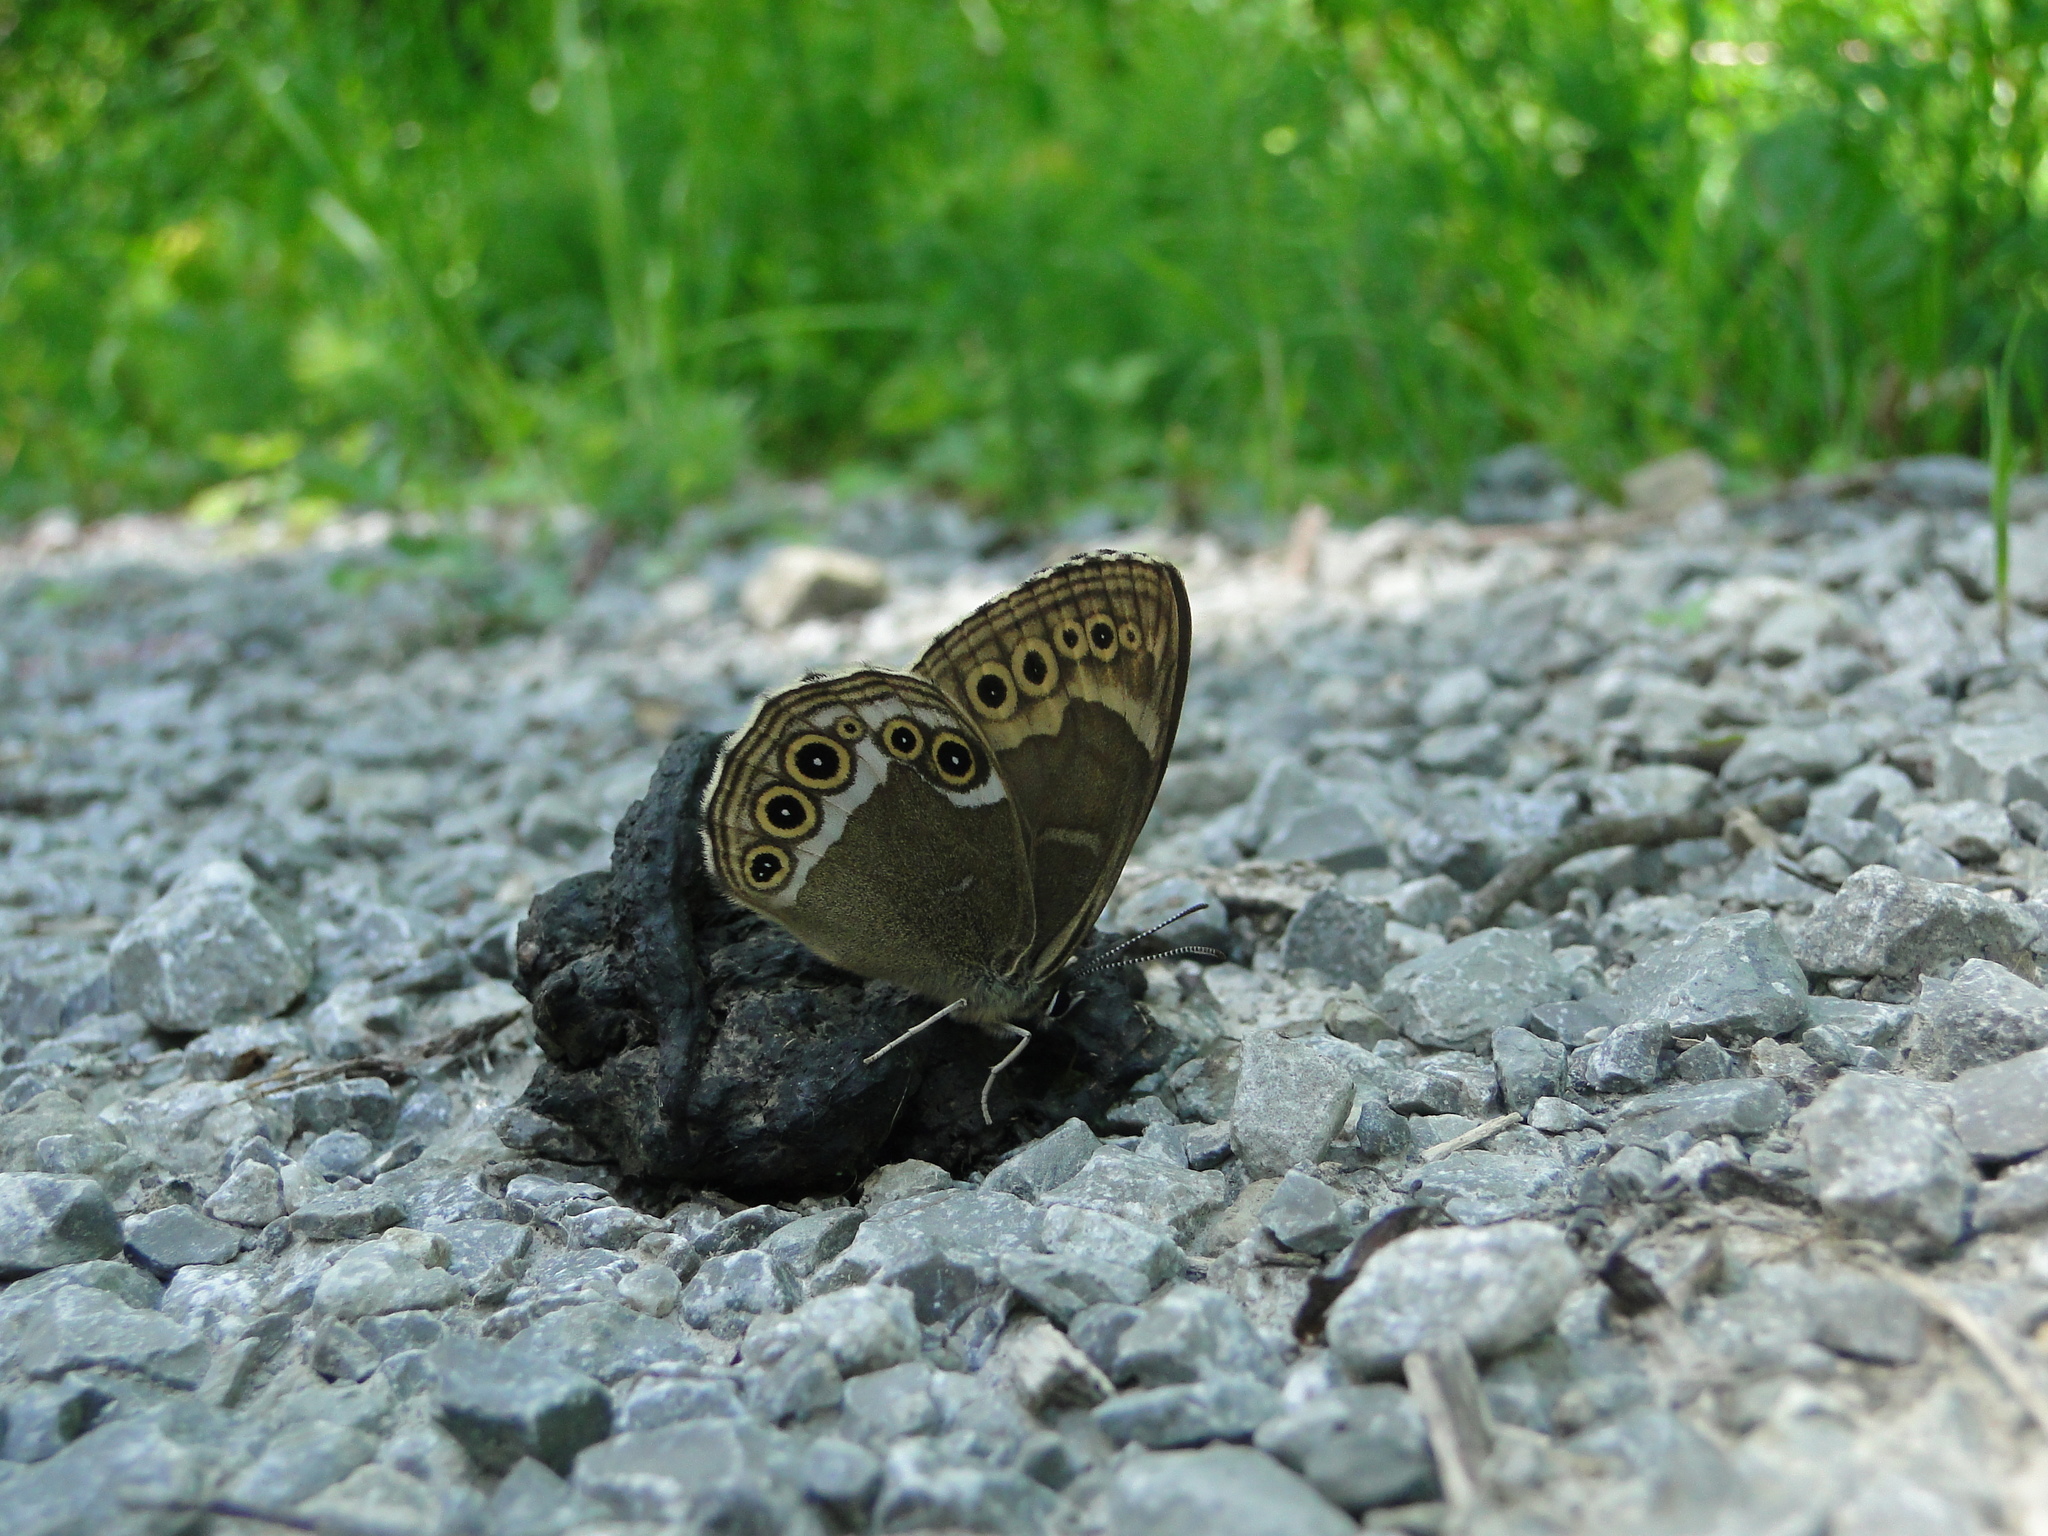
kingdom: Animalia
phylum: Arthropoda
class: Insecta
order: Lepidoptera
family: Nymphalidae
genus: Pararge
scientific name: Pararge Lopinga achine
